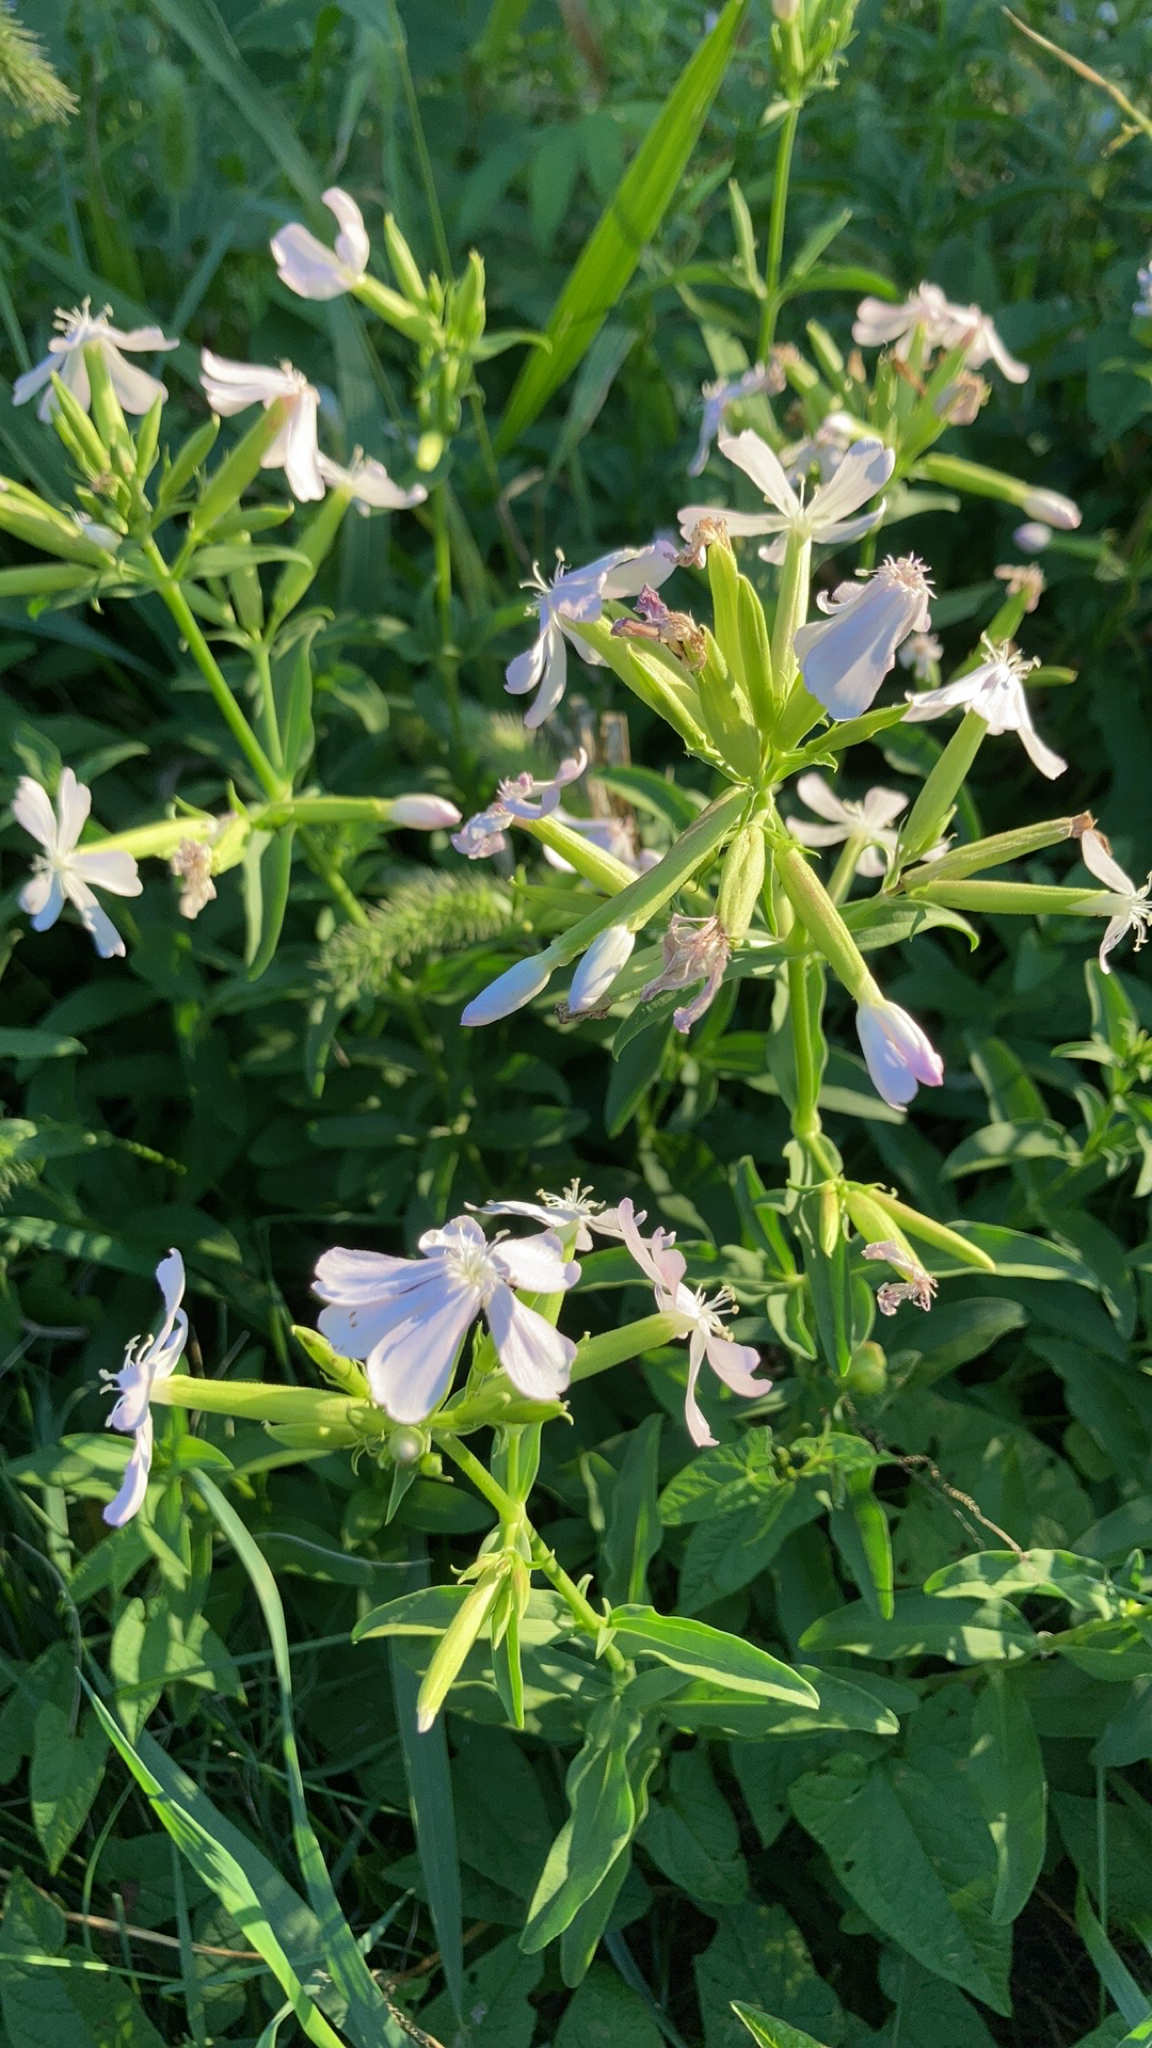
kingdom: Plantae
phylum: Tracheophyta
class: Magnoliopsida
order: Caryophyllales
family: Caryophyllaceae
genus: Saponaria
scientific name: Saponaria officinalis
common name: Soapwort
